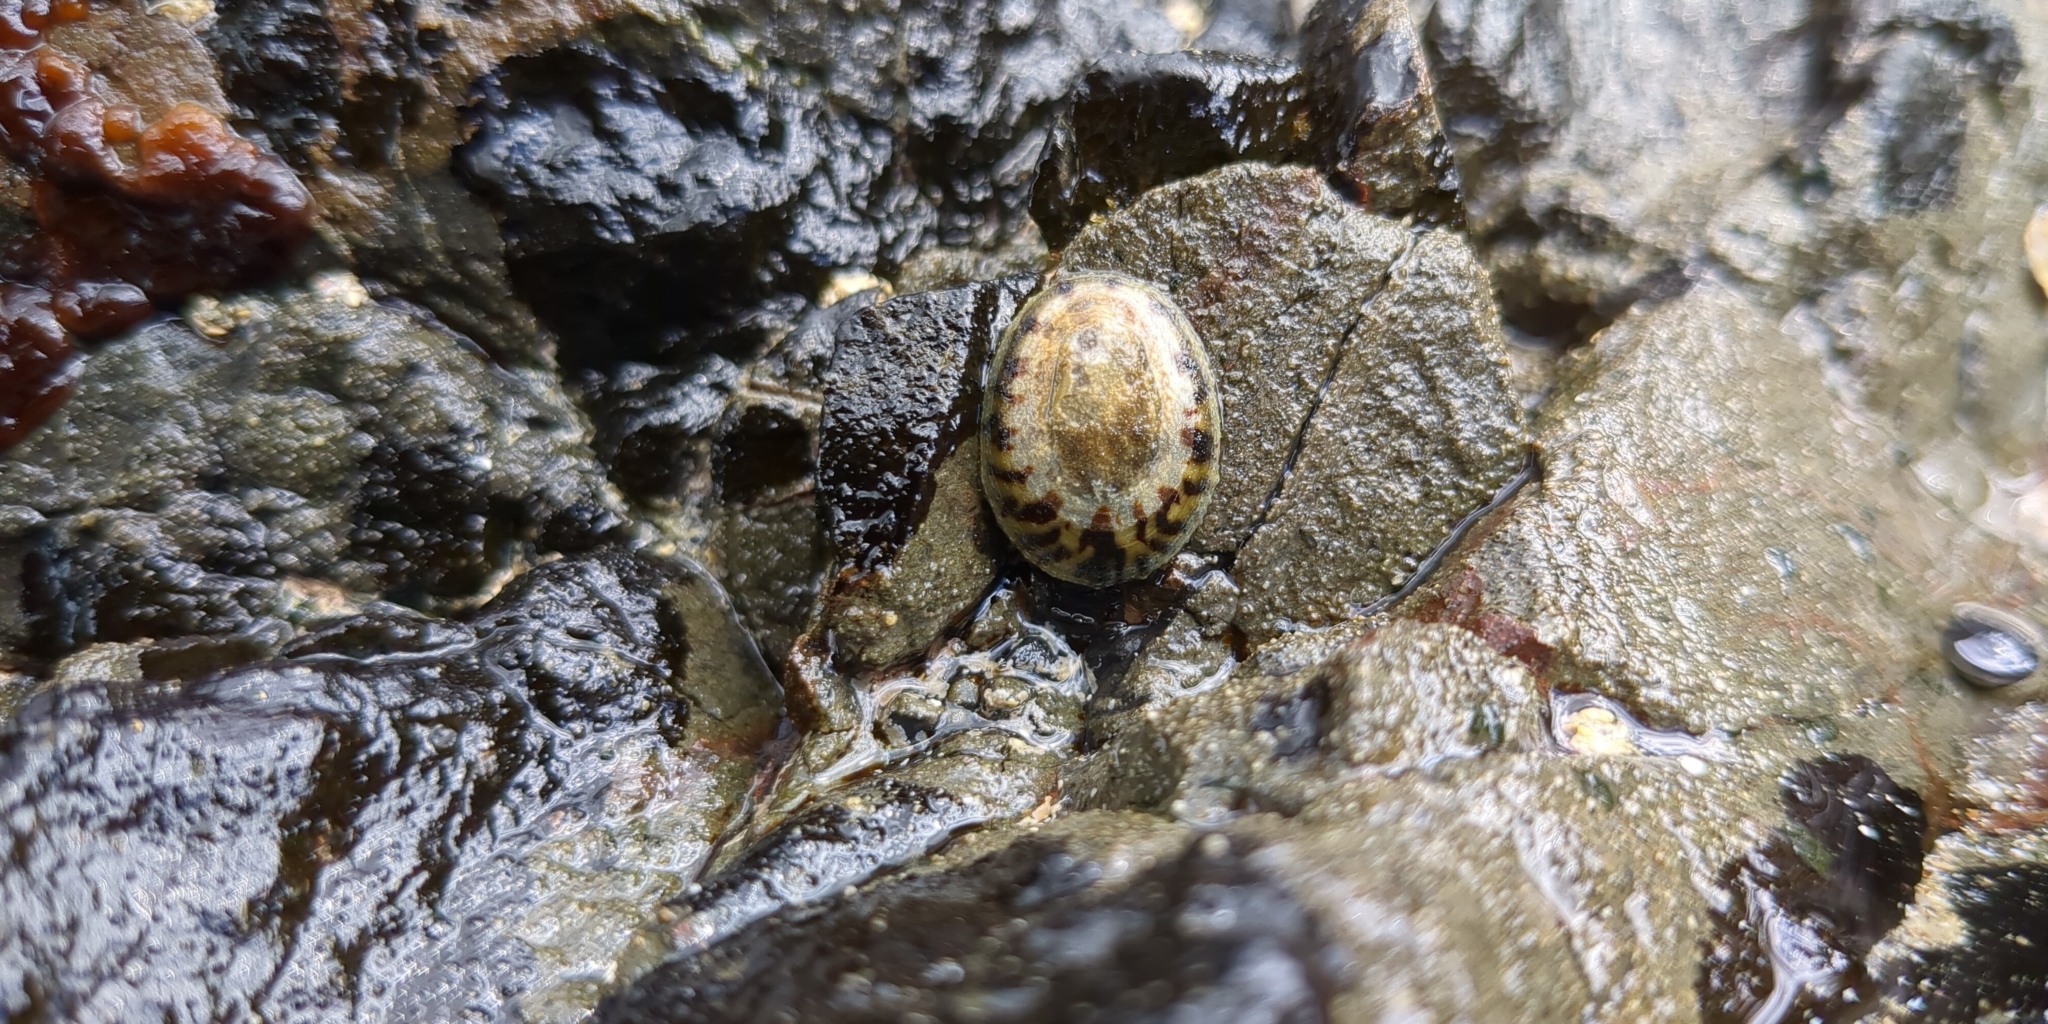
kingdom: Animalia
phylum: Mollusca
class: Gastropoda
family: Nacellidae
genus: Cellana
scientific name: Cellana radians
